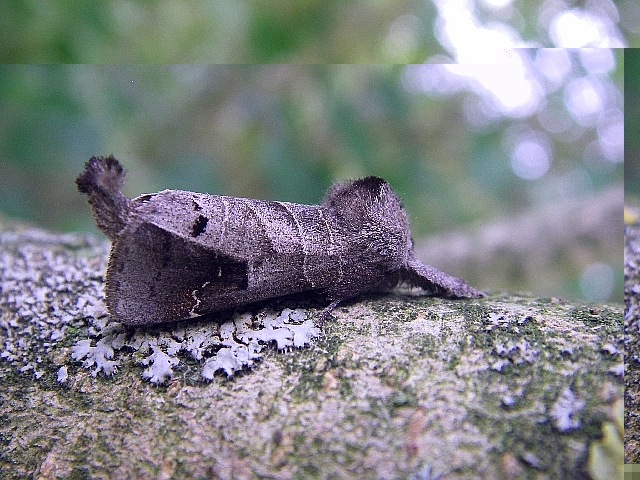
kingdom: Animalia
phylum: Arthropoda
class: Insecta
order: Lepidoptera
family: Notodontidae
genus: Clostera
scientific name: Clostera anachoreta
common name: Scarce chocolate-tip
